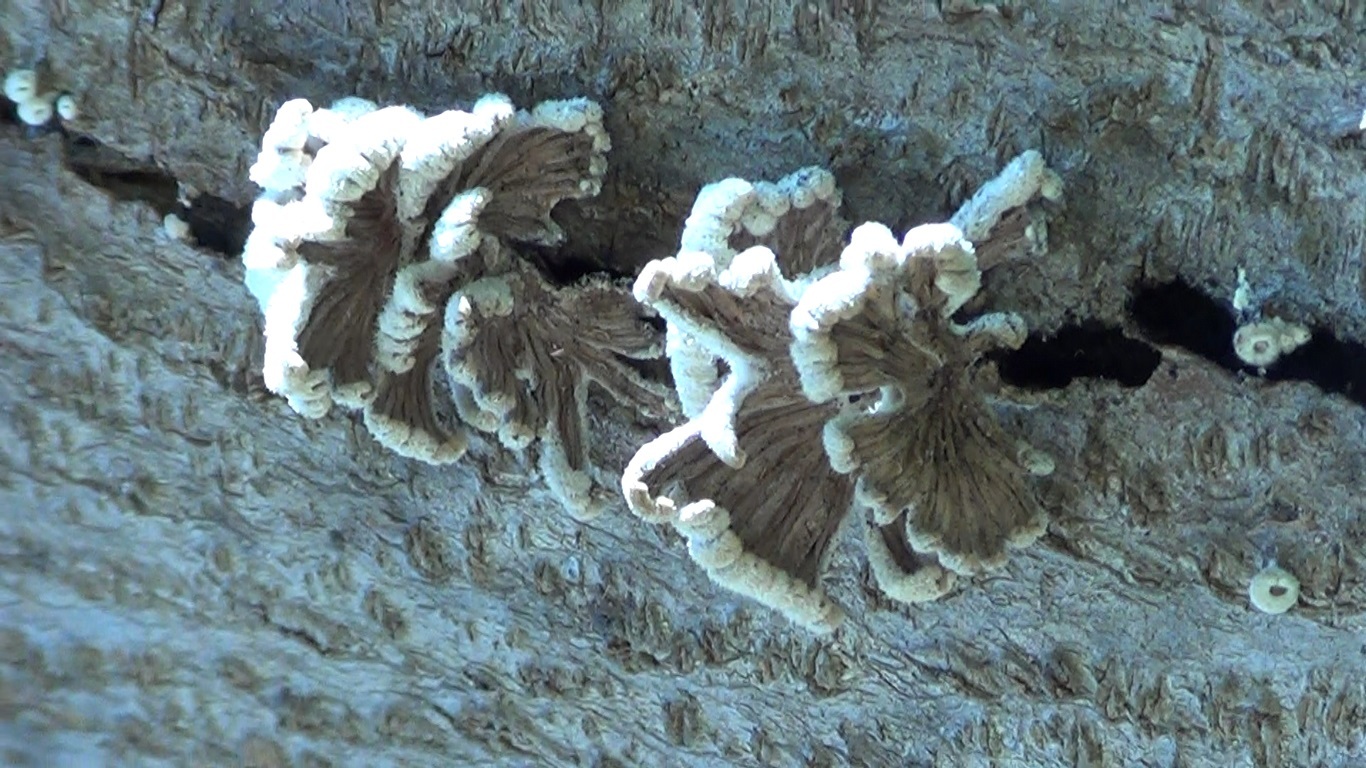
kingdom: Fungi
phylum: Basidiomycota
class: Agaricomycetes
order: Agaricales
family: Schizophyllaceae
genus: Schizophyllum
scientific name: Schizophyllum commune
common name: Common porecrust
